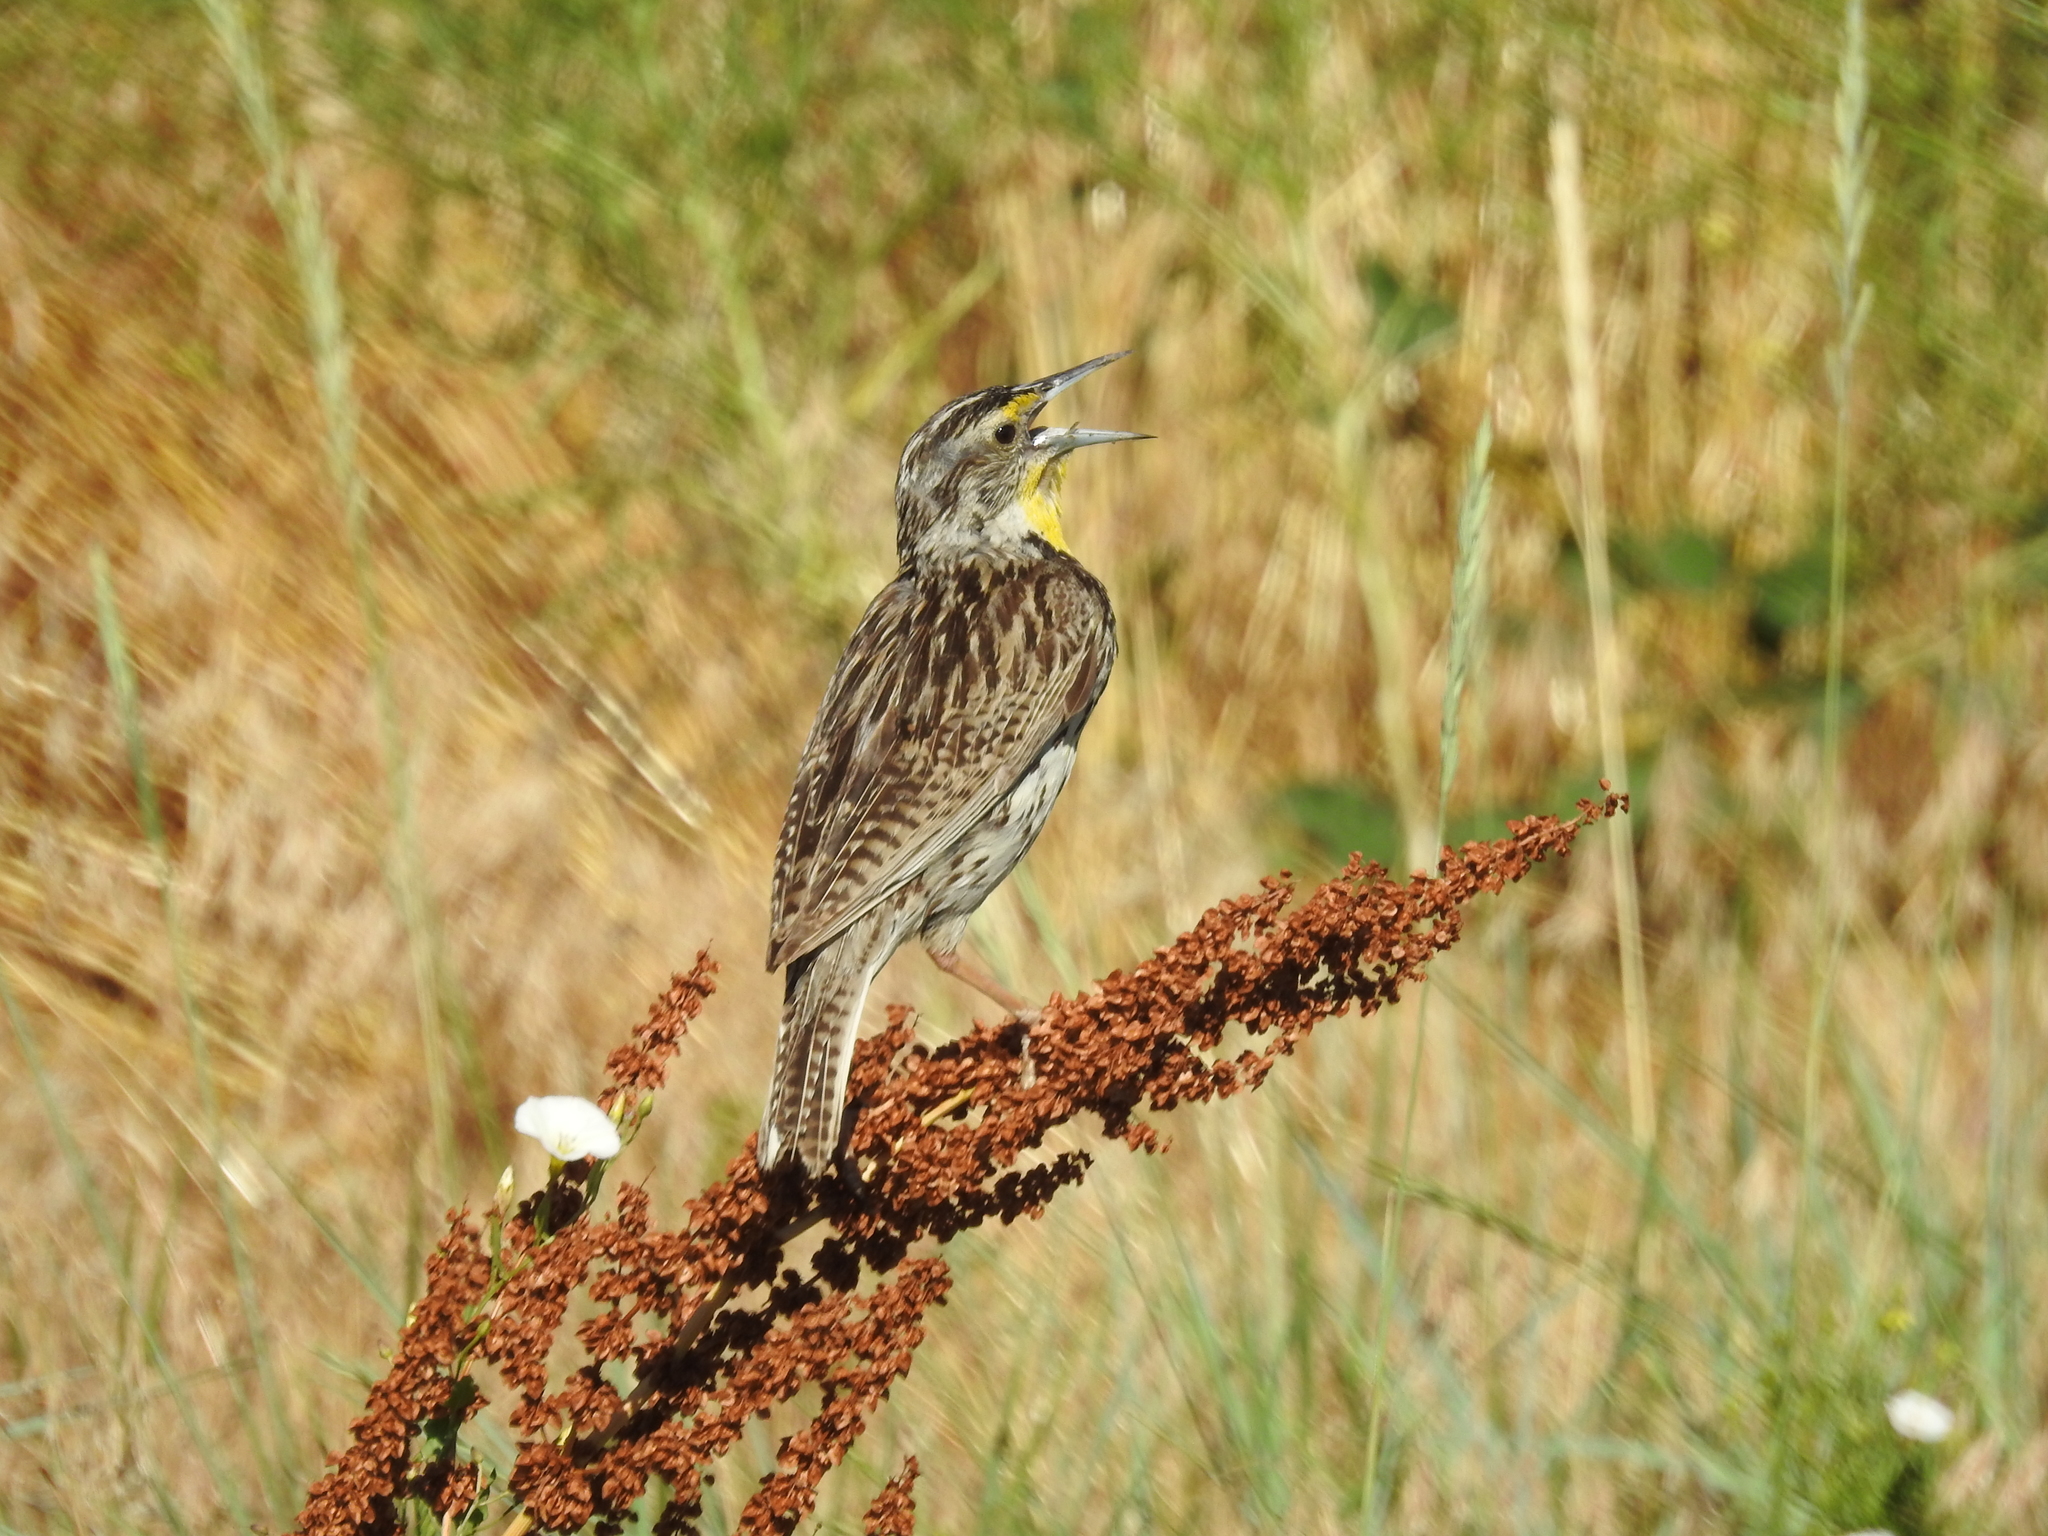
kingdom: Animalia
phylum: Chordata
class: Aves
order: Passeriformes
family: Icteridae
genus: Sturnella
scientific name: Sturnella neglecta
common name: Western meadowlark
